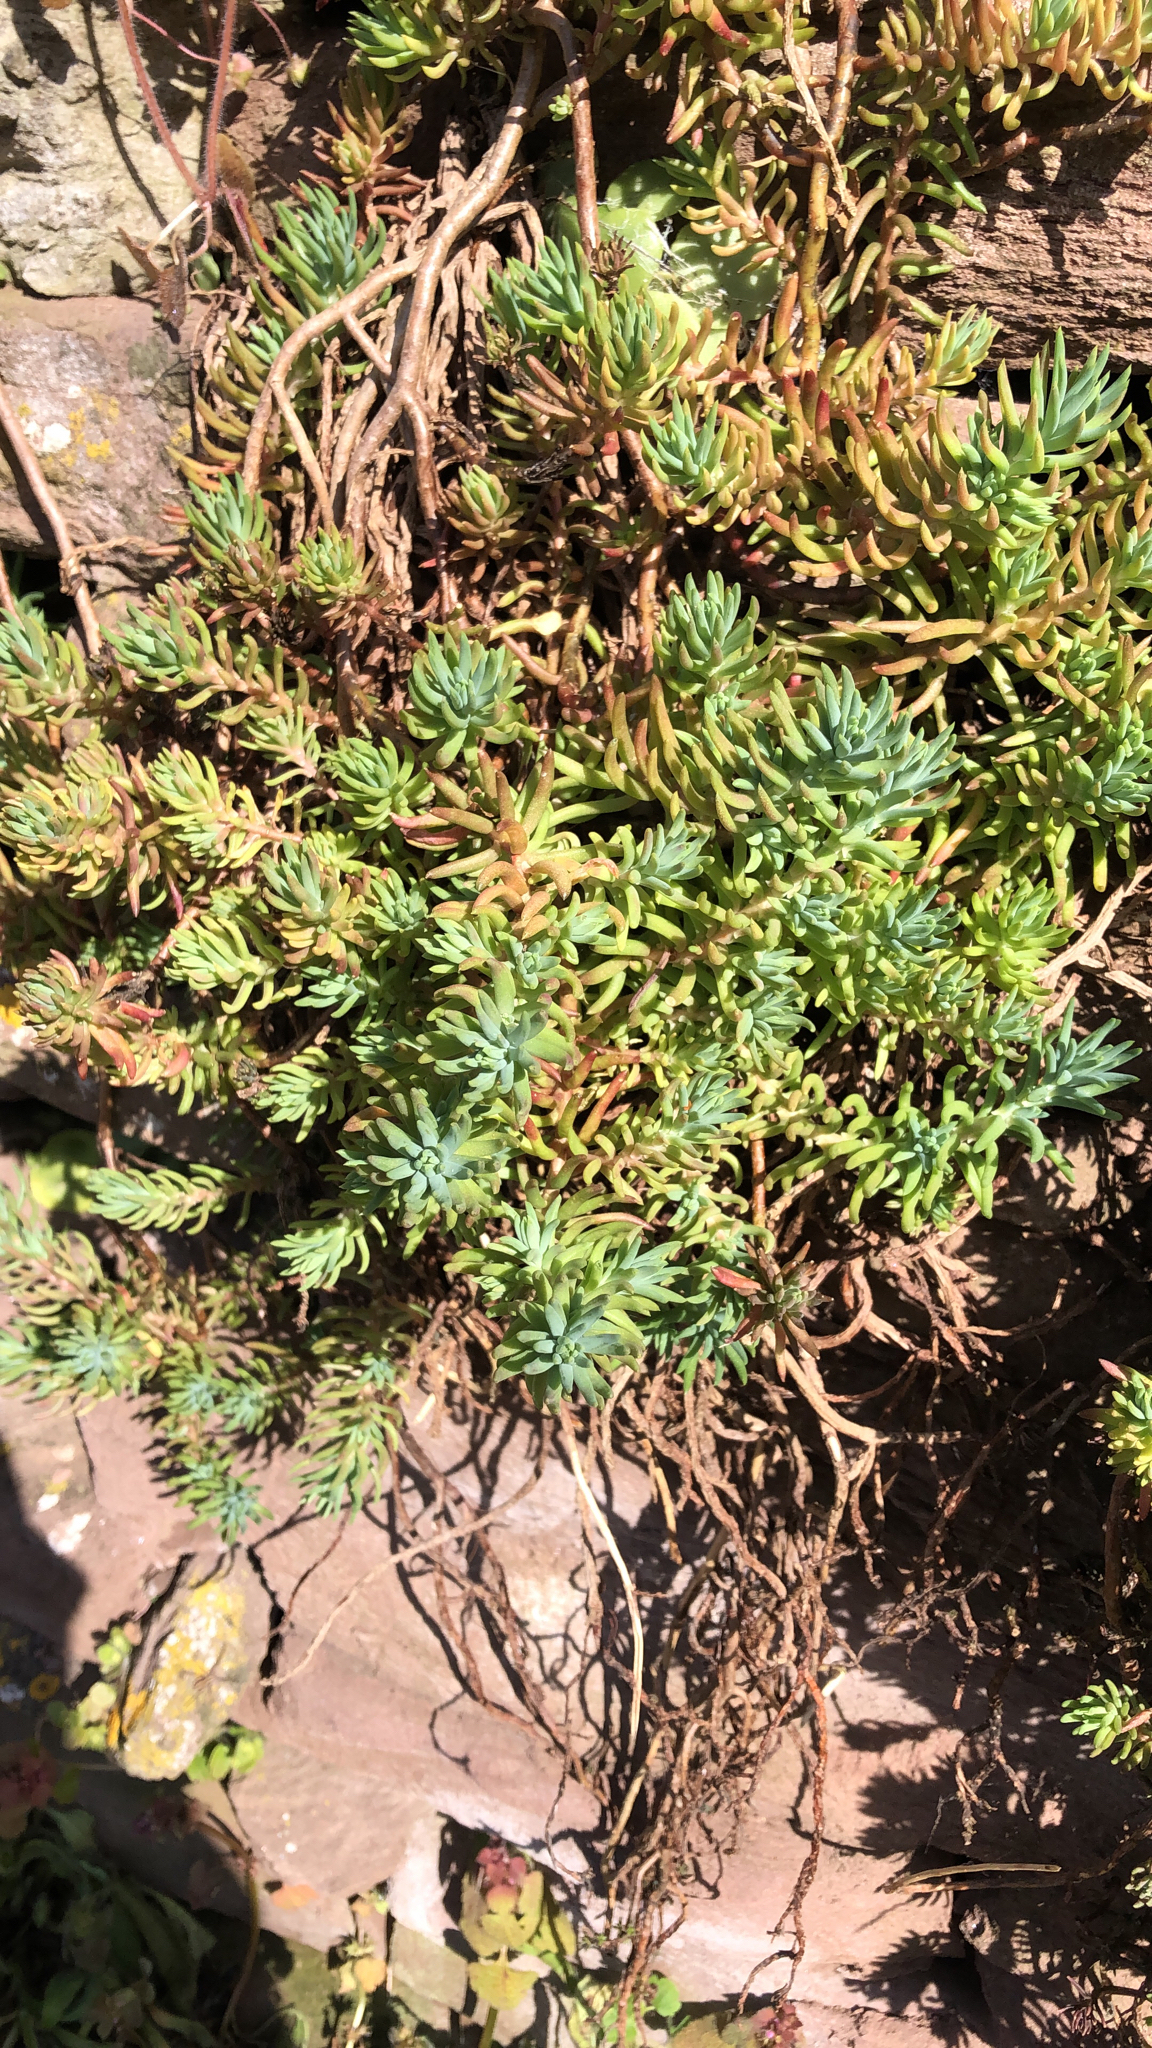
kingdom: Plantae
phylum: Tracheophyta
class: Magnoliopsida
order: Saxifragales
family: Crassulaceae
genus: Petrosedum
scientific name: Petrosedum rupestre
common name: Jenny's stonecrop
